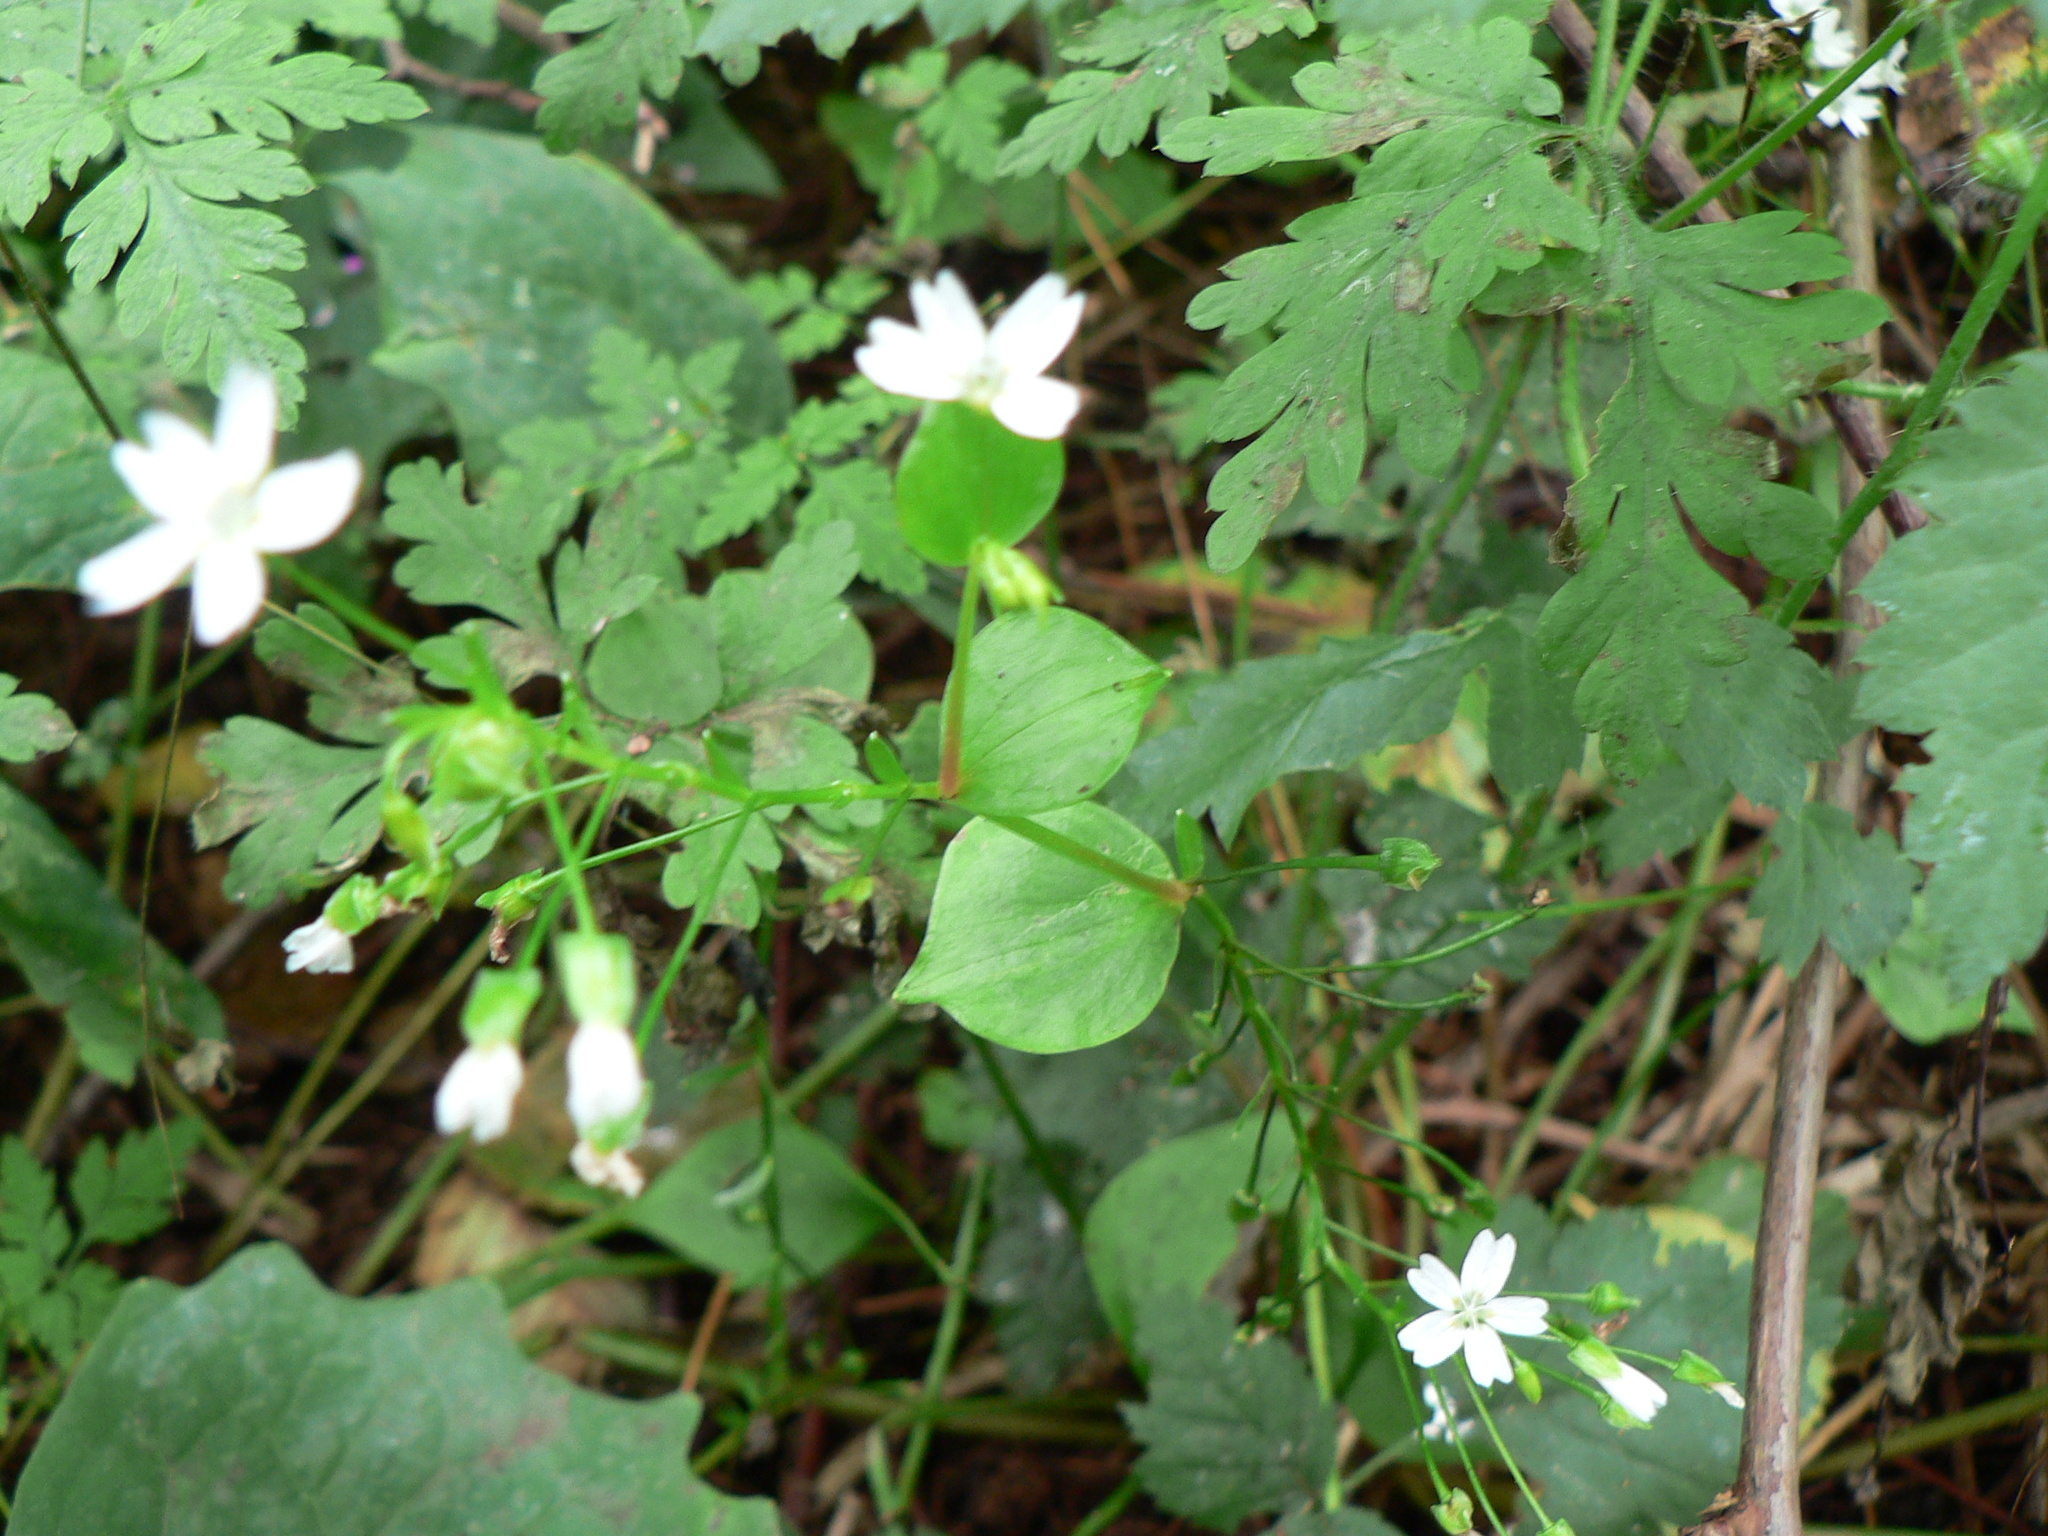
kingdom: Plantae
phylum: Tracheophyta
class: Magnoliopsida
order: Caryophyllales
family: Montiaceae
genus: Claytonia
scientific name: Claytonia sibirica
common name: Pink purslane
